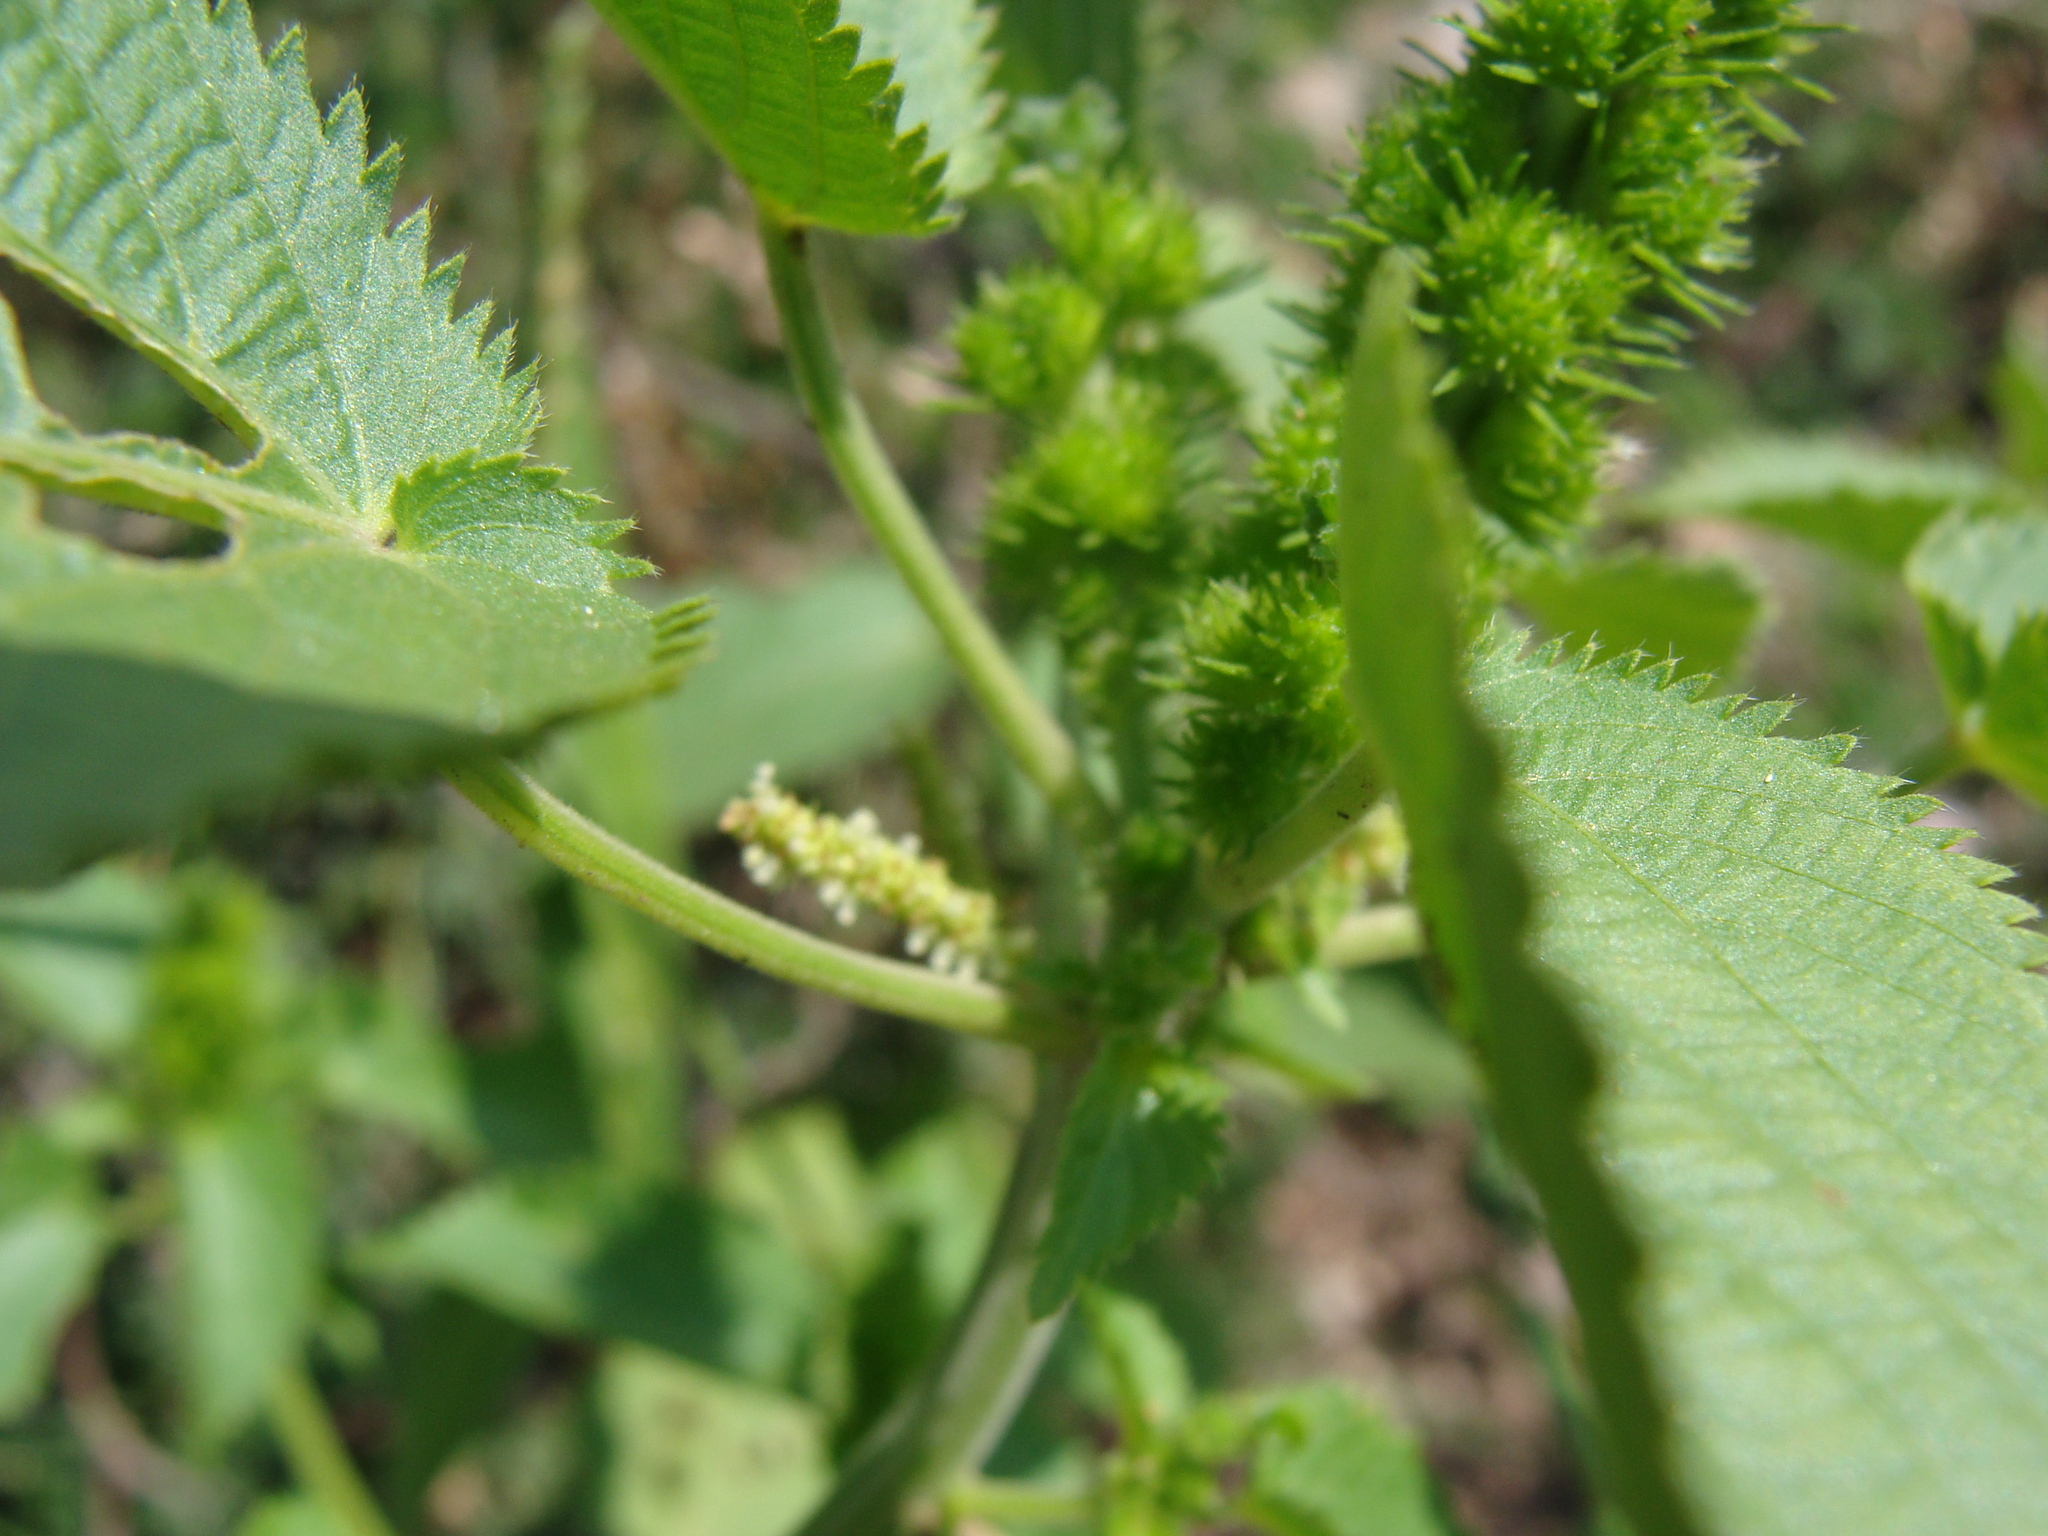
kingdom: Plantae
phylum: Tracheophyta
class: Magnoliopsida
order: Malpighiales
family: Euphorbiaceae
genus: Acalypha
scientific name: Acalypha ostryifolia
